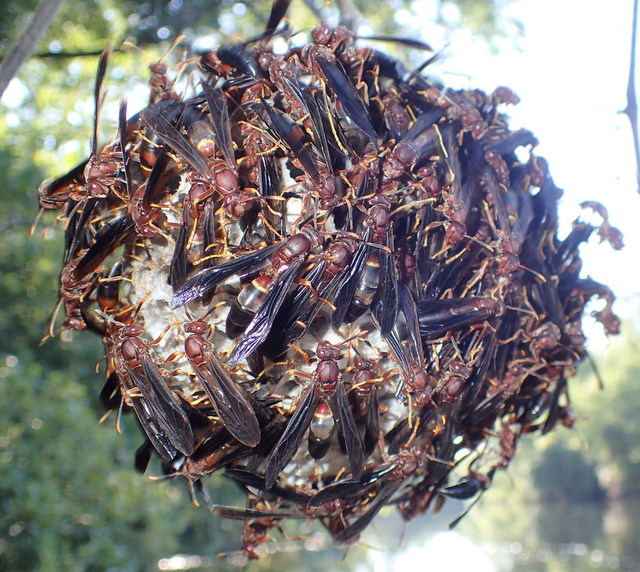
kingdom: Animalia
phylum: Arthropoda
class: Insecta
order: Hymenoptera
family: Eumenidae
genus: Polistes
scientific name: Polistes annularis
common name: Ringed paper wasp
